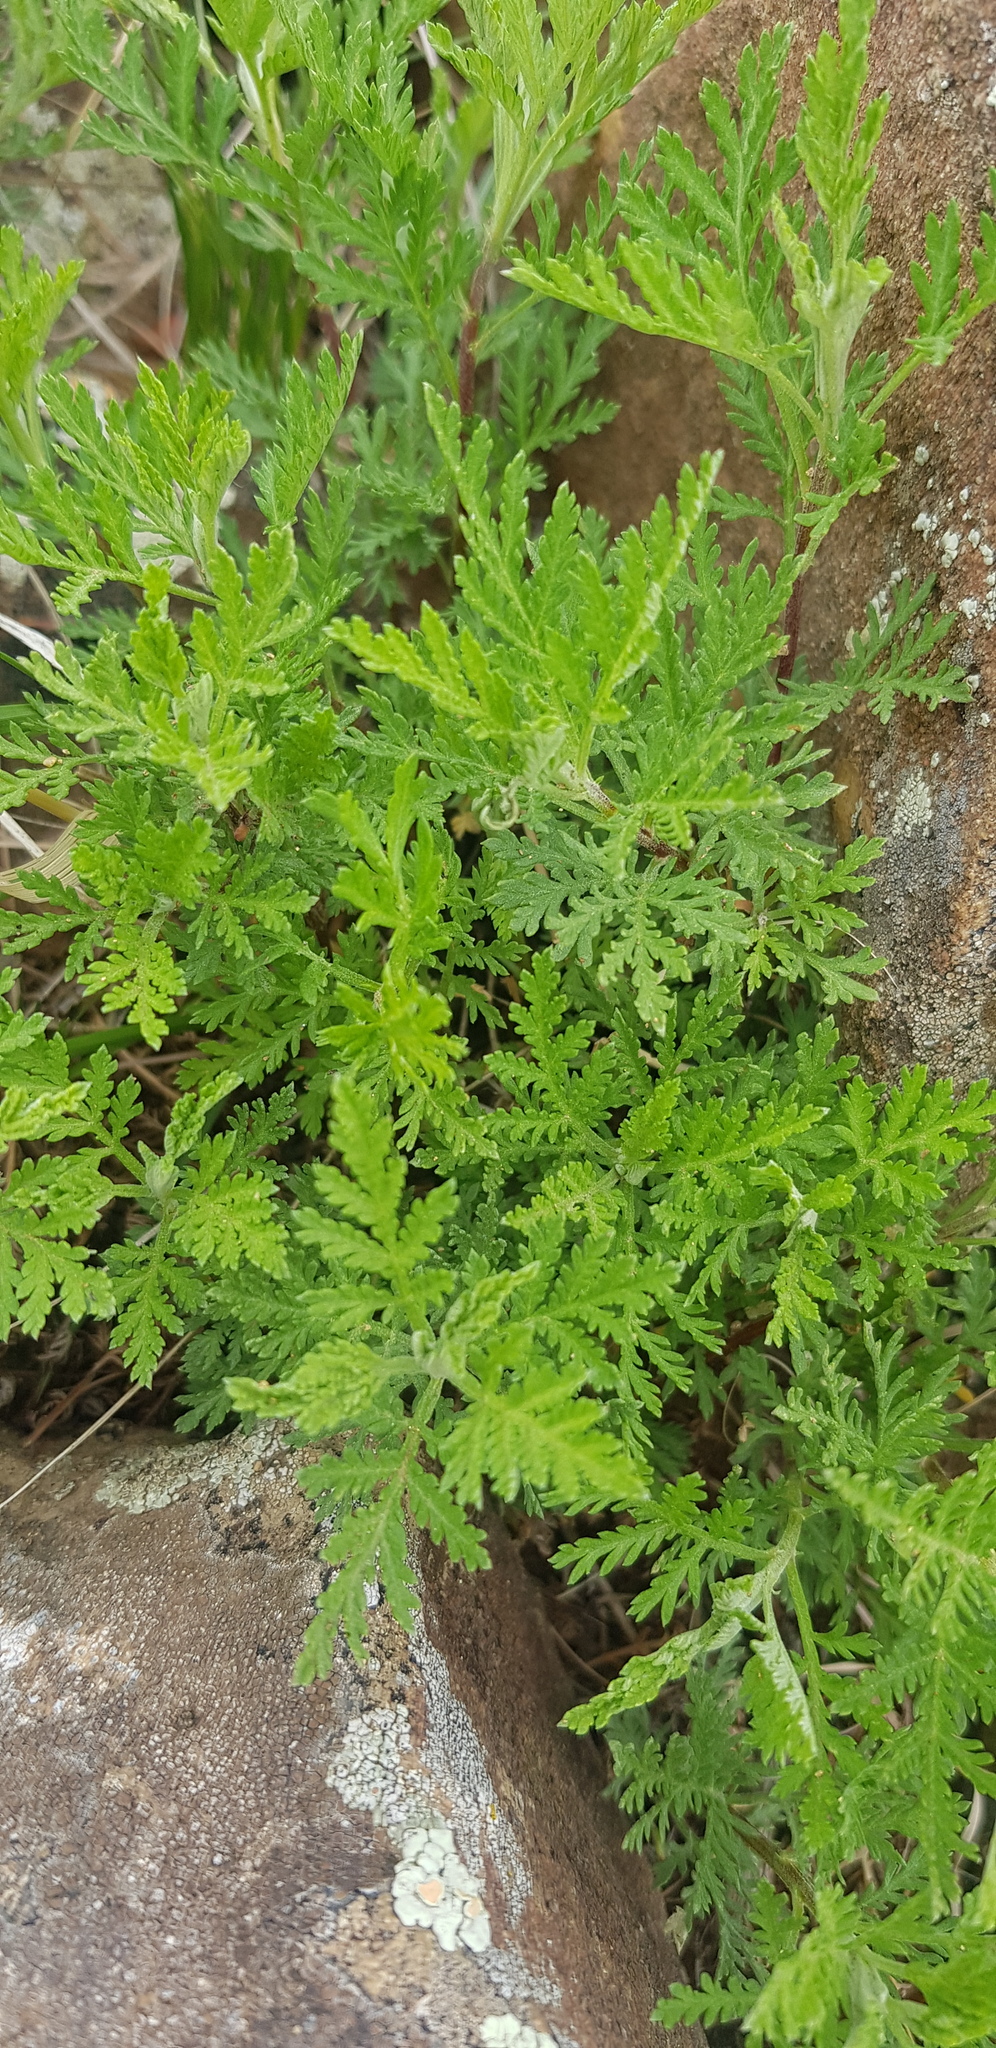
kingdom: Plantae
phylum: Tracheophyta
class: Magnoliopsida
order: Asterales
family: Asteraceae
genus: Artemisia
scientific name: Artemisia
